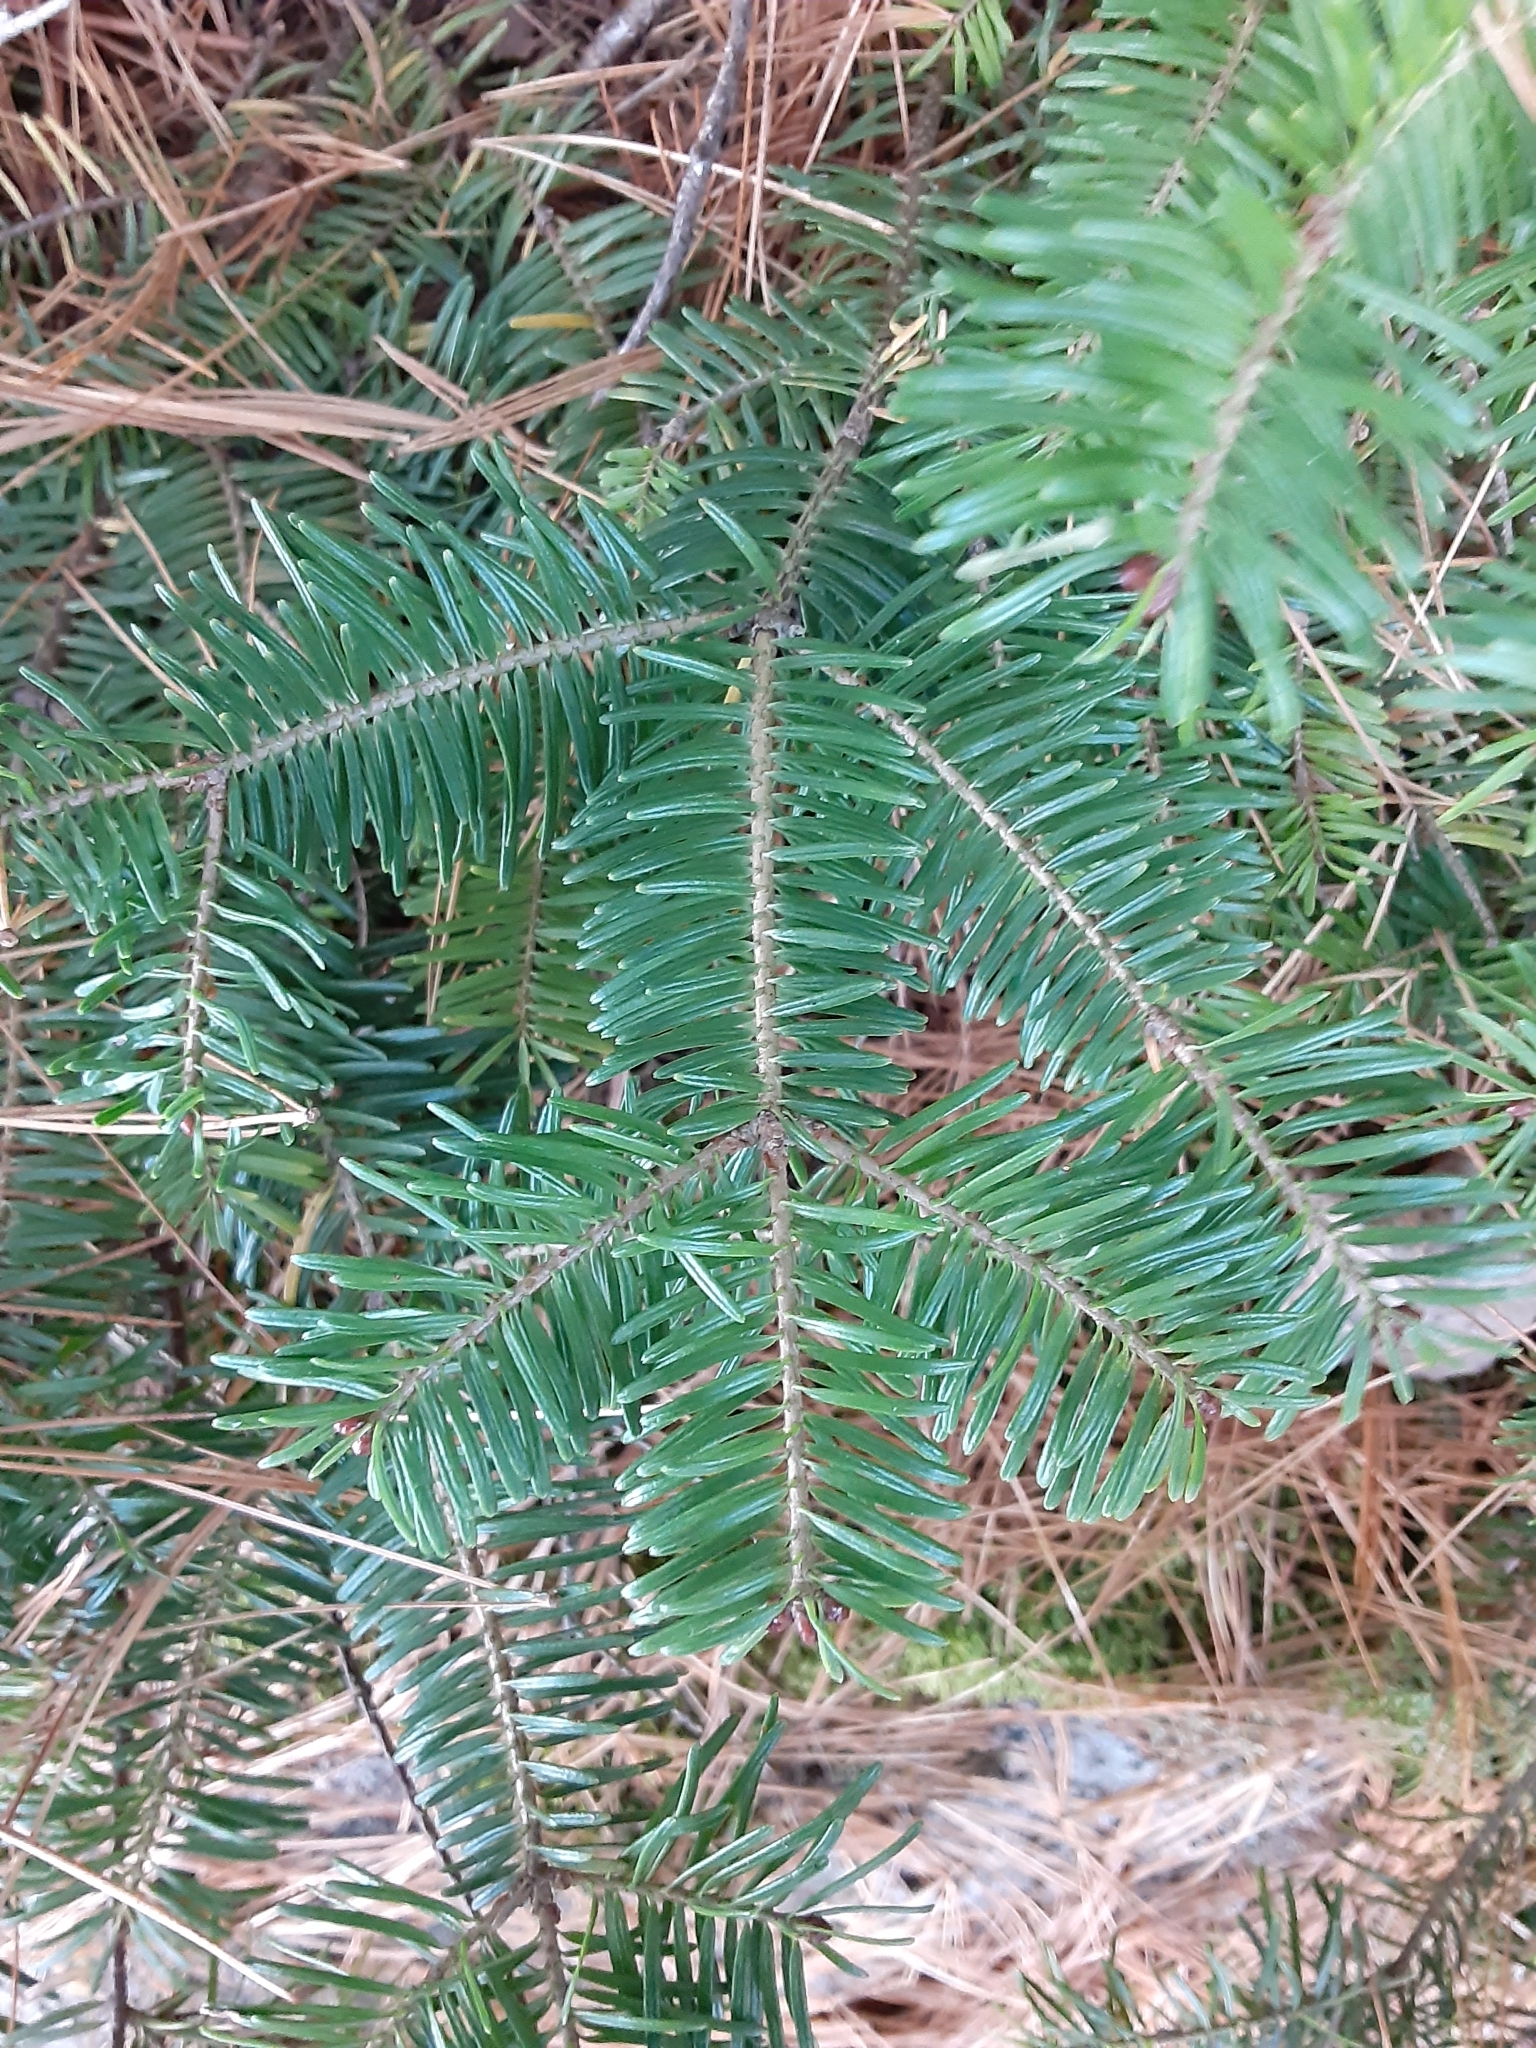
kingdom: Plantae
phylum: Tracheophyta
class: Pinopsida
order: Pinales
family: Pinaceae
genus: Abies
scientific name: Abies balsamea
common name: Balsam fir
